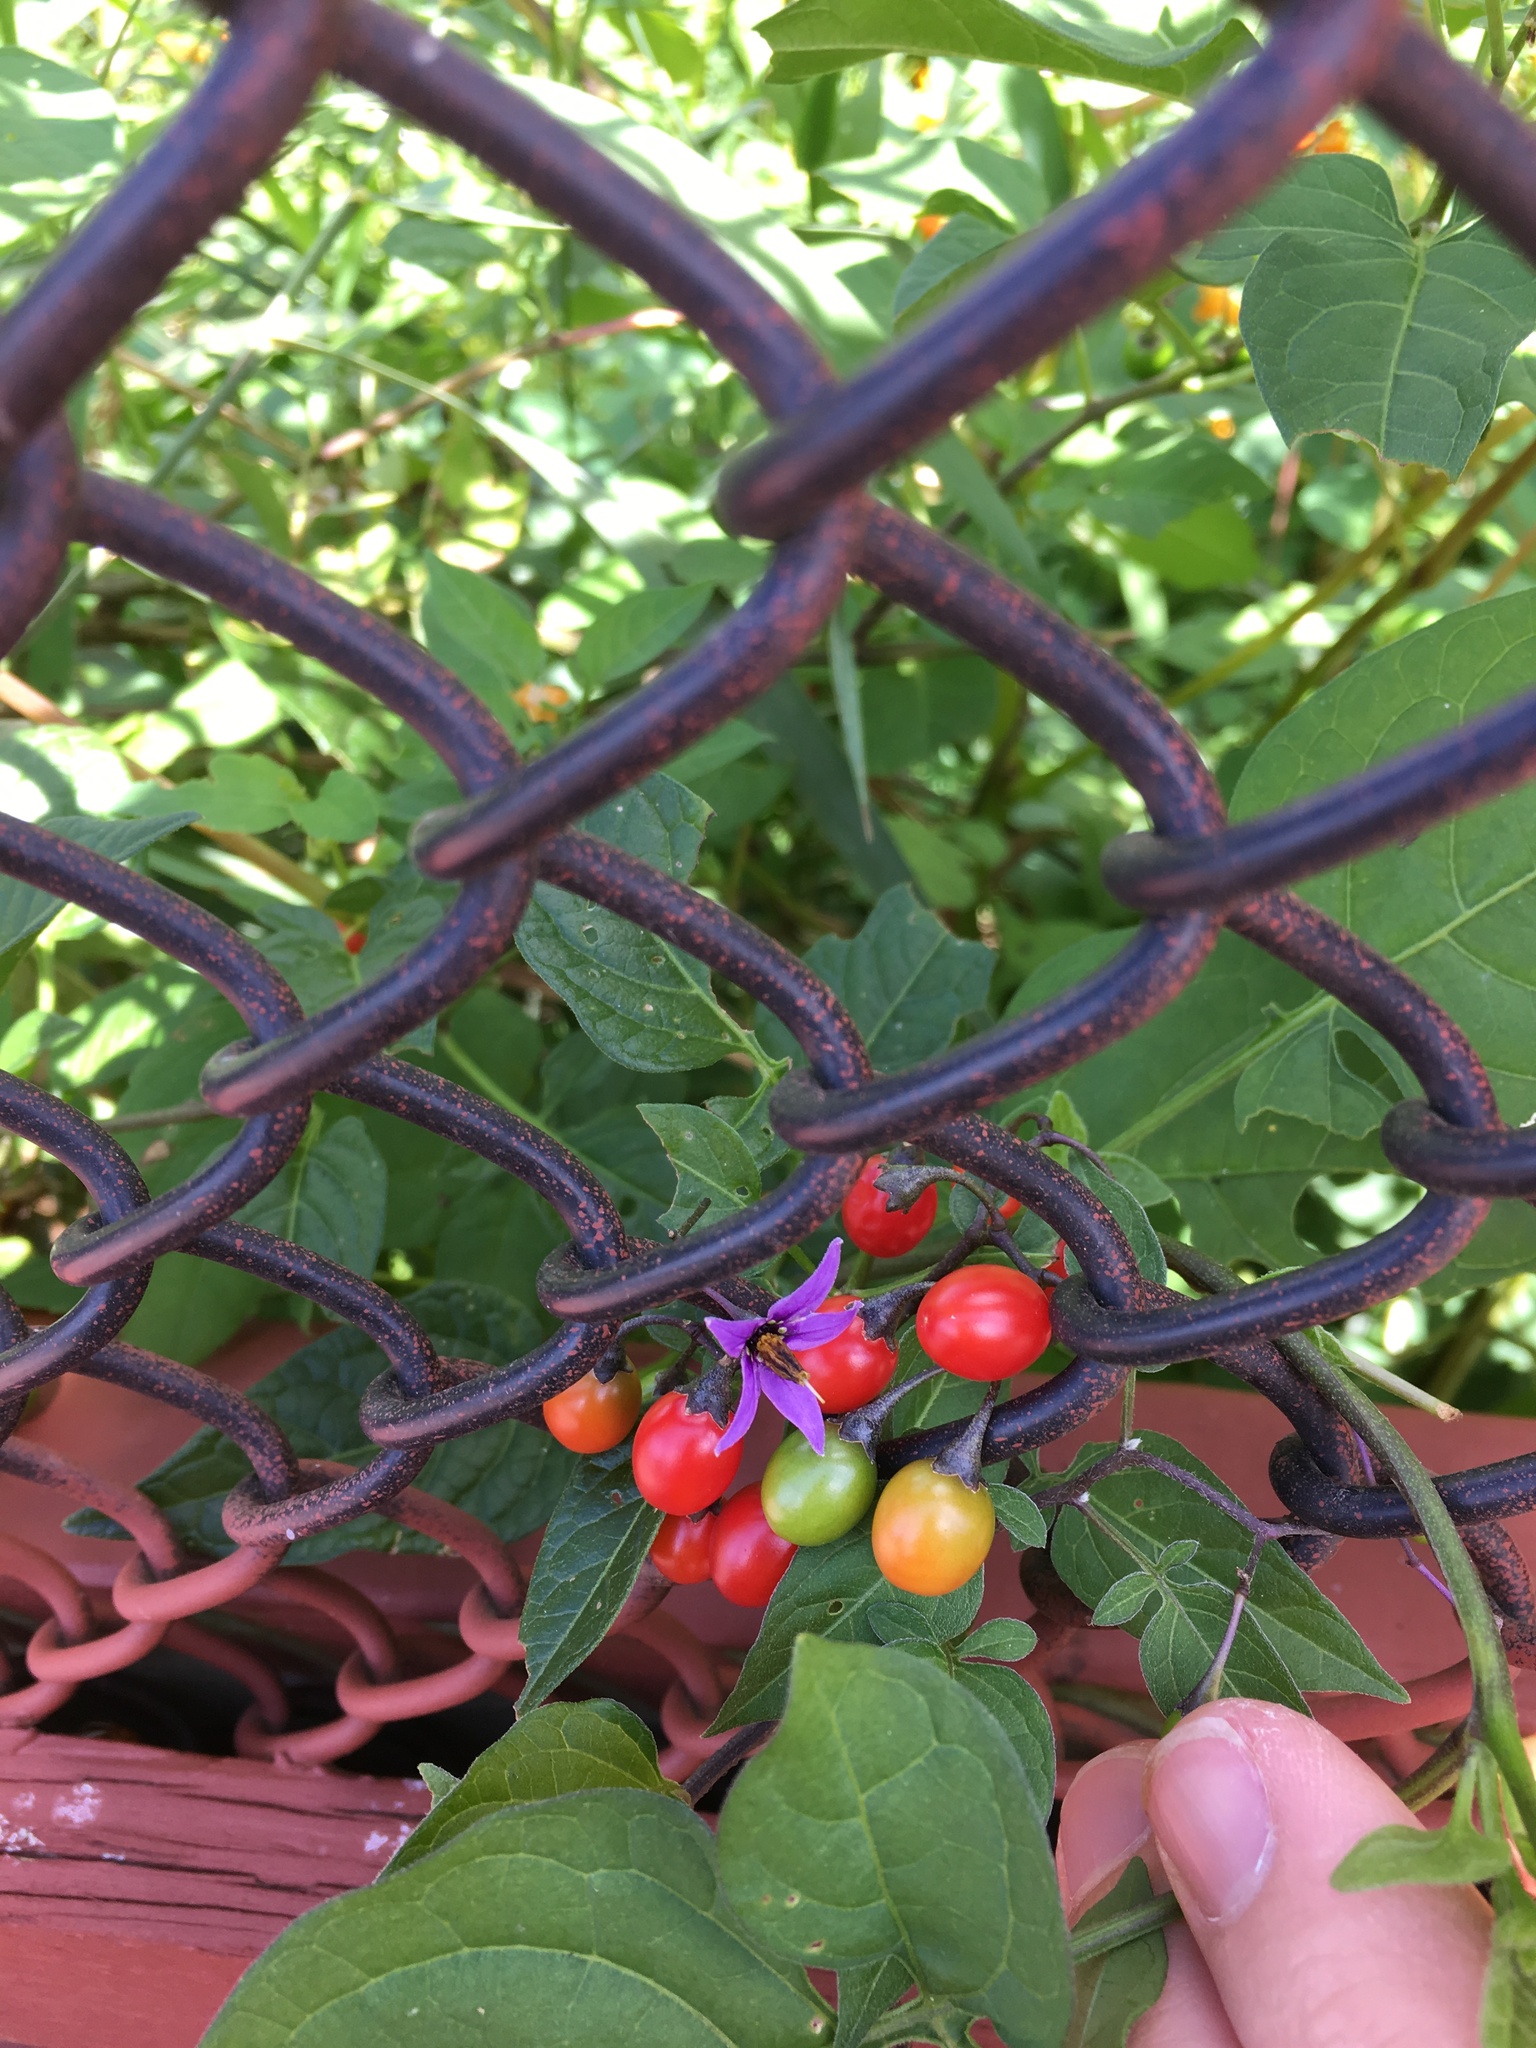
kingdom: Plantae
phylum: Tracheophyta
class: Magnoliopsida
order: Solanales
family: Solanaceae
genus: Solanum
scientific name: Solanum dulcamara
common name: Climbing nightshade
